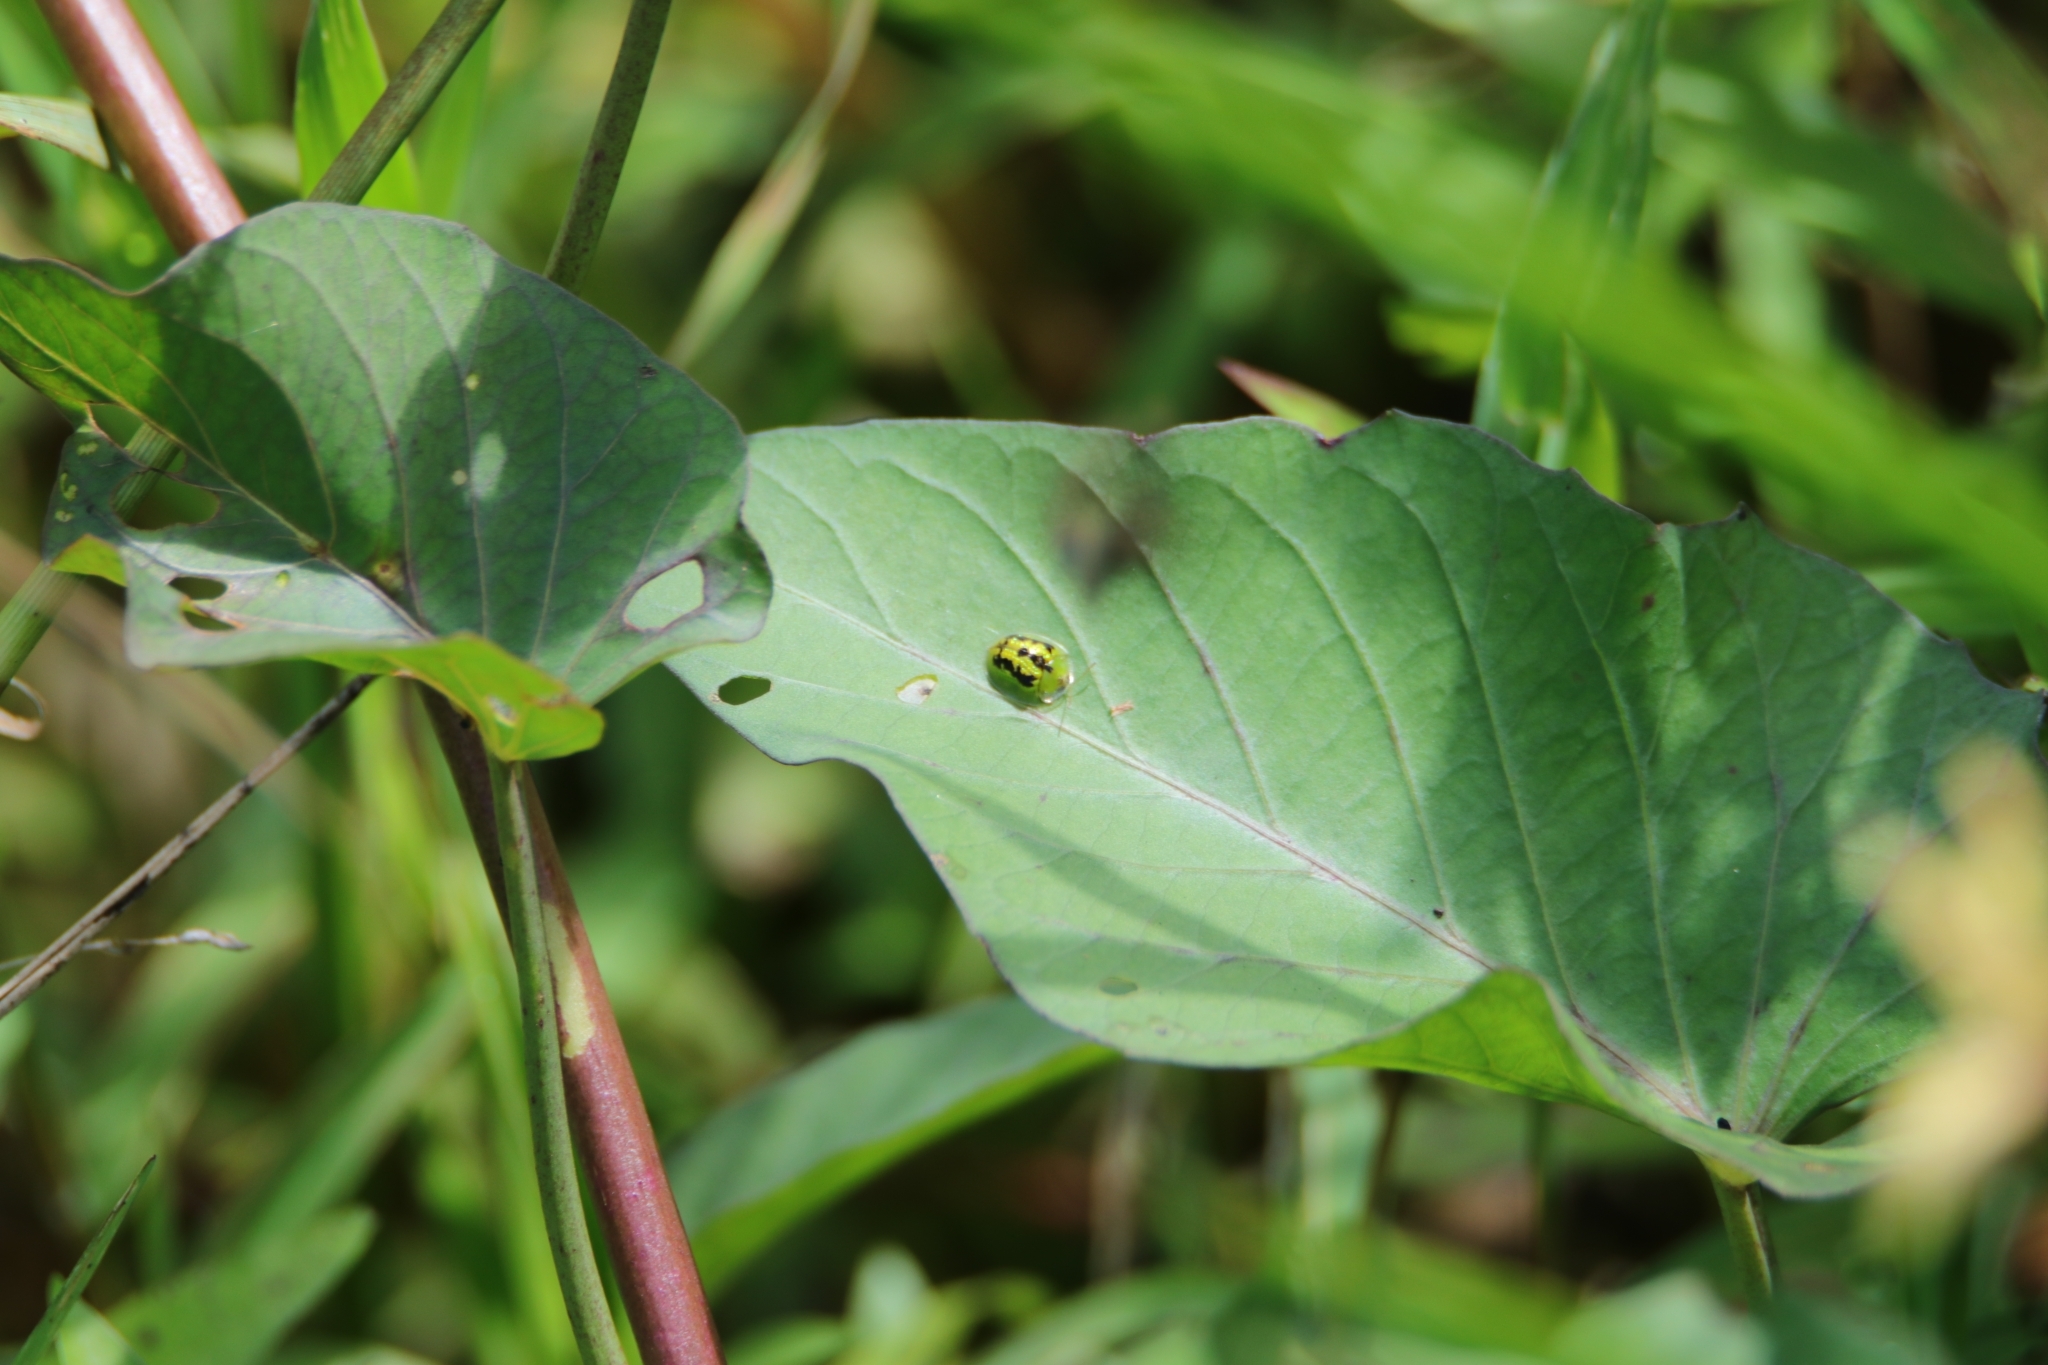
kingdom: Animalia
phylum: Arthropoda
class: Insecta
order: Coleoptera
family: Chrysomelidae
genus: Cassida
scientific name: Cassida circumdata
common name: Tortoise beetle
